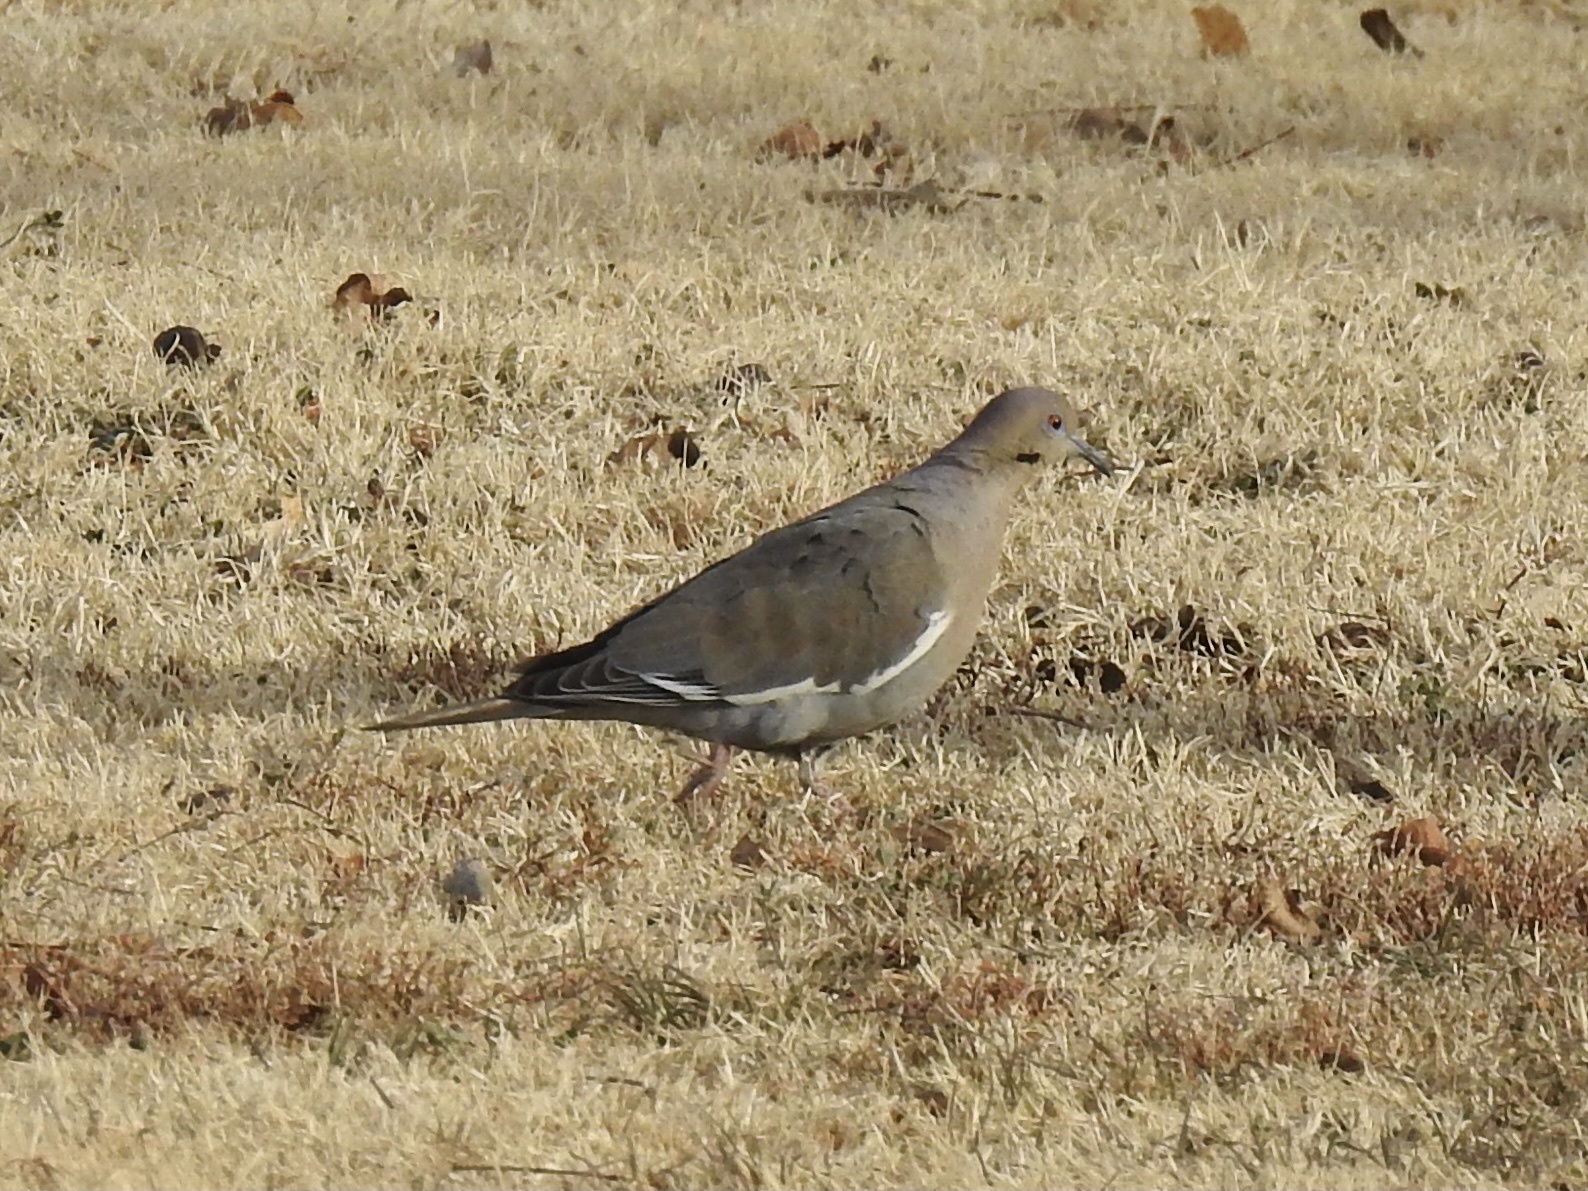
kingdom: Animalia
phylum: Chordata
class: Aves
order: Columbiformes
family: Columbidae
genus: Zenaida
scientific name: Zenaida asiatica
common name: White-winged dove
